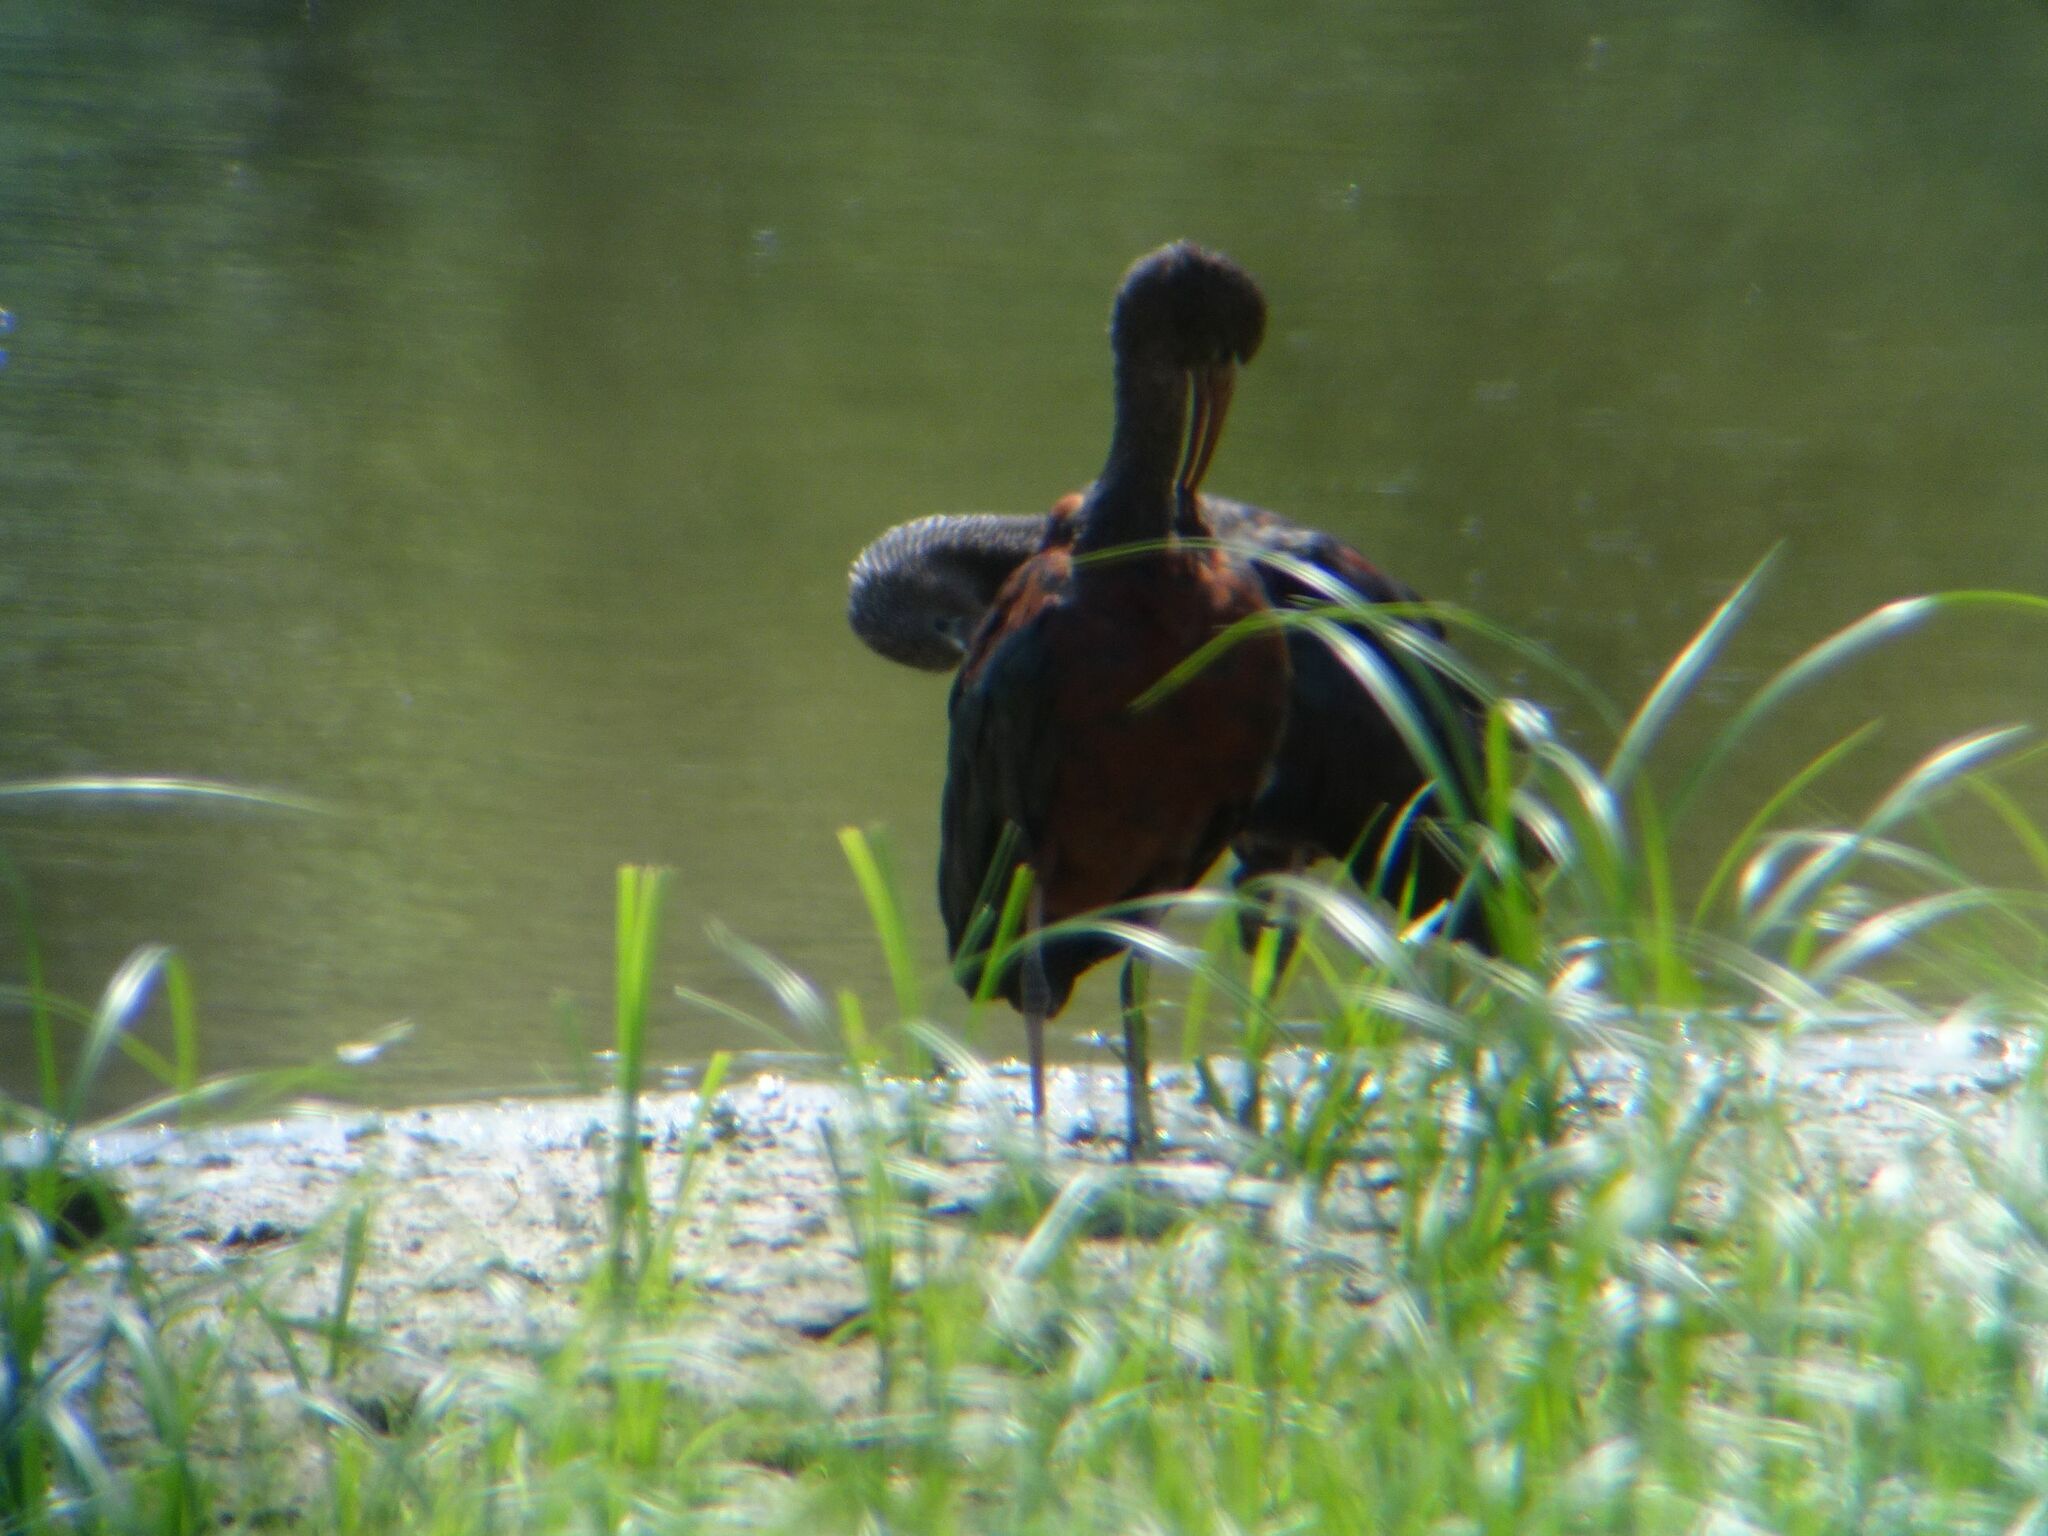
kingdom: Animalia
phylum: Chordata
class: Aves
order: Pelecaniformes
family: Threskiornithidae
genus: Plegadis
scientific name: Plegadis falcinellus
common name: Glossy ibis
